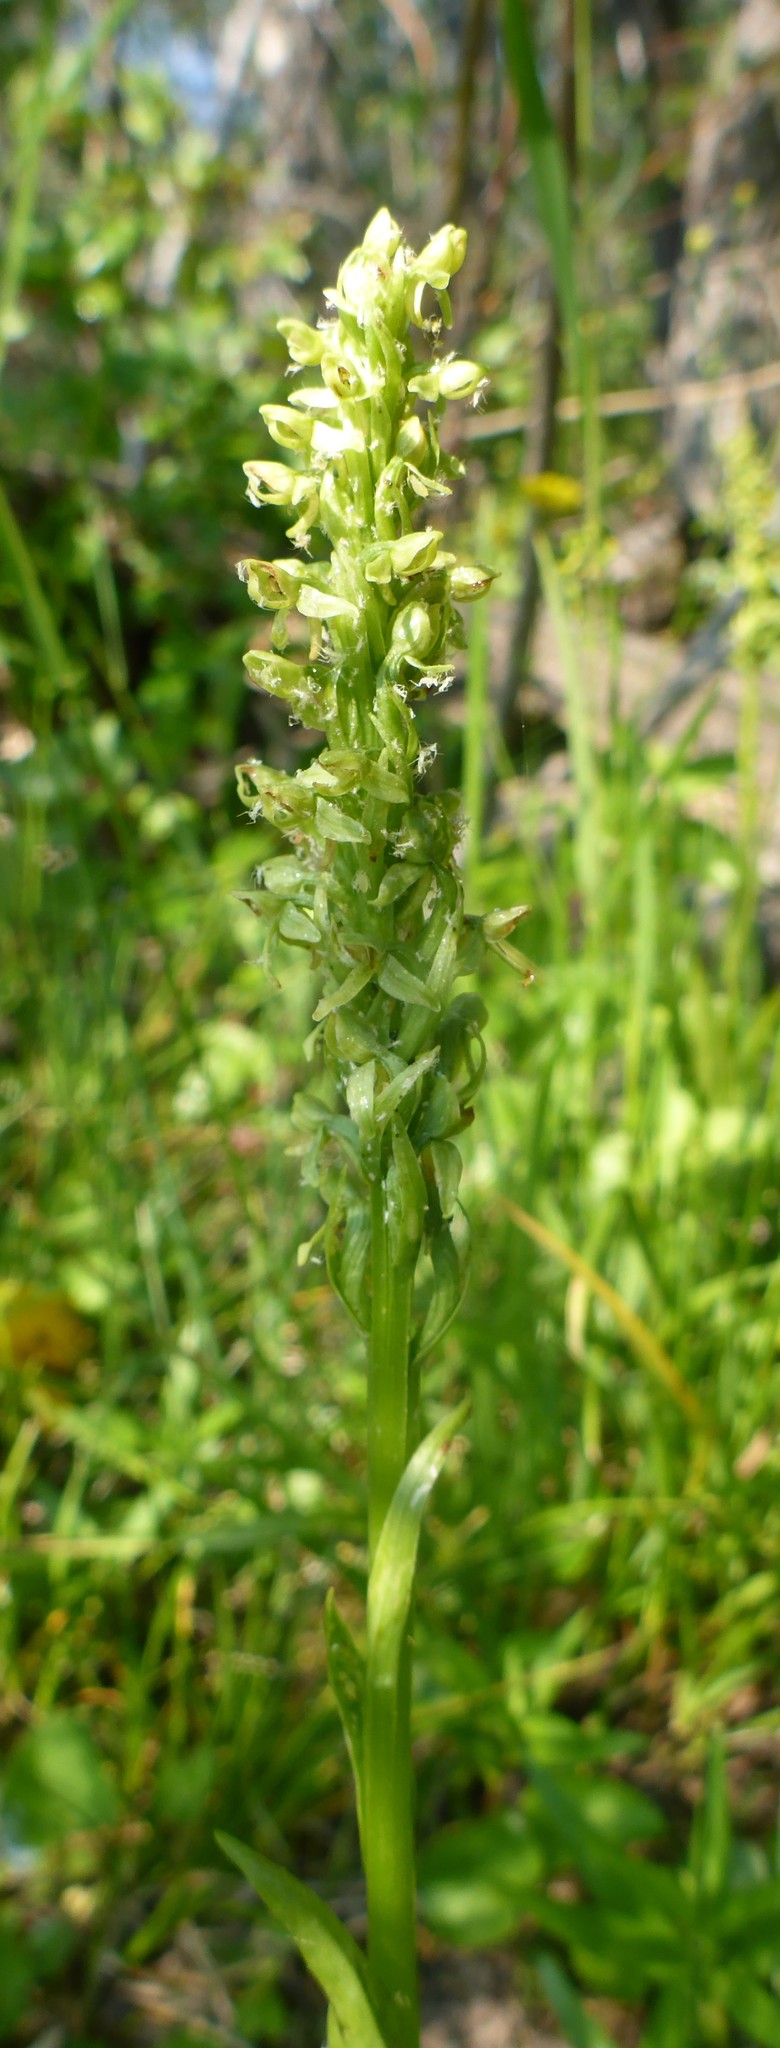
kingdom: Plantae
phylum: Tracheophyta
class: Liliopsida
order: Asparagales
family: Orchidaceae
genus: Platanthera
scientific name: Platanthera huronensis
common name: Fragrant green orchid
